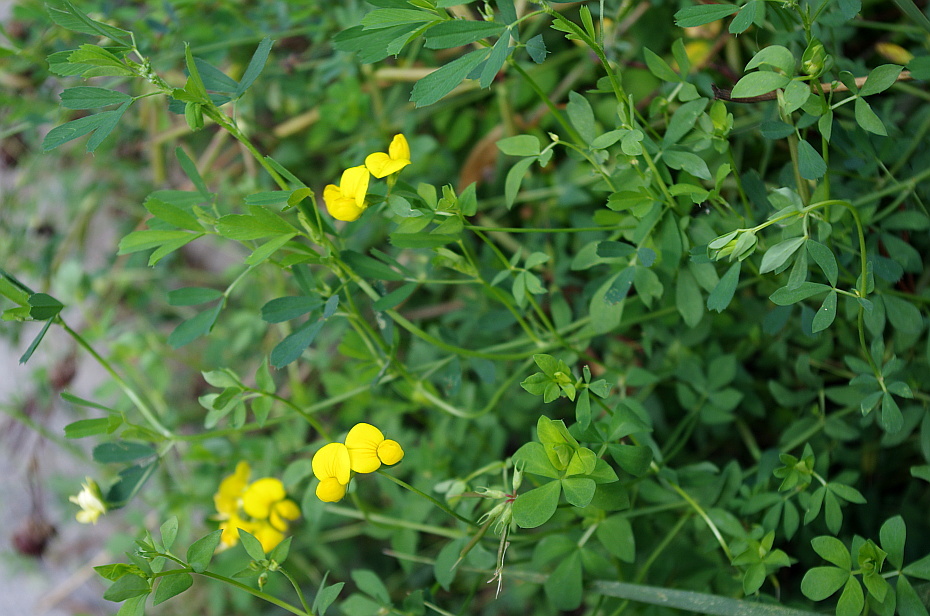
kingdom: Plantae
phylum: Tracheophyta
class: Magnoliopsida
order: Fabales
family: Fabaceae
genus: Lotus
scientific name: Lotus corniculatus
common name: Common bird's-foot-trefoil
